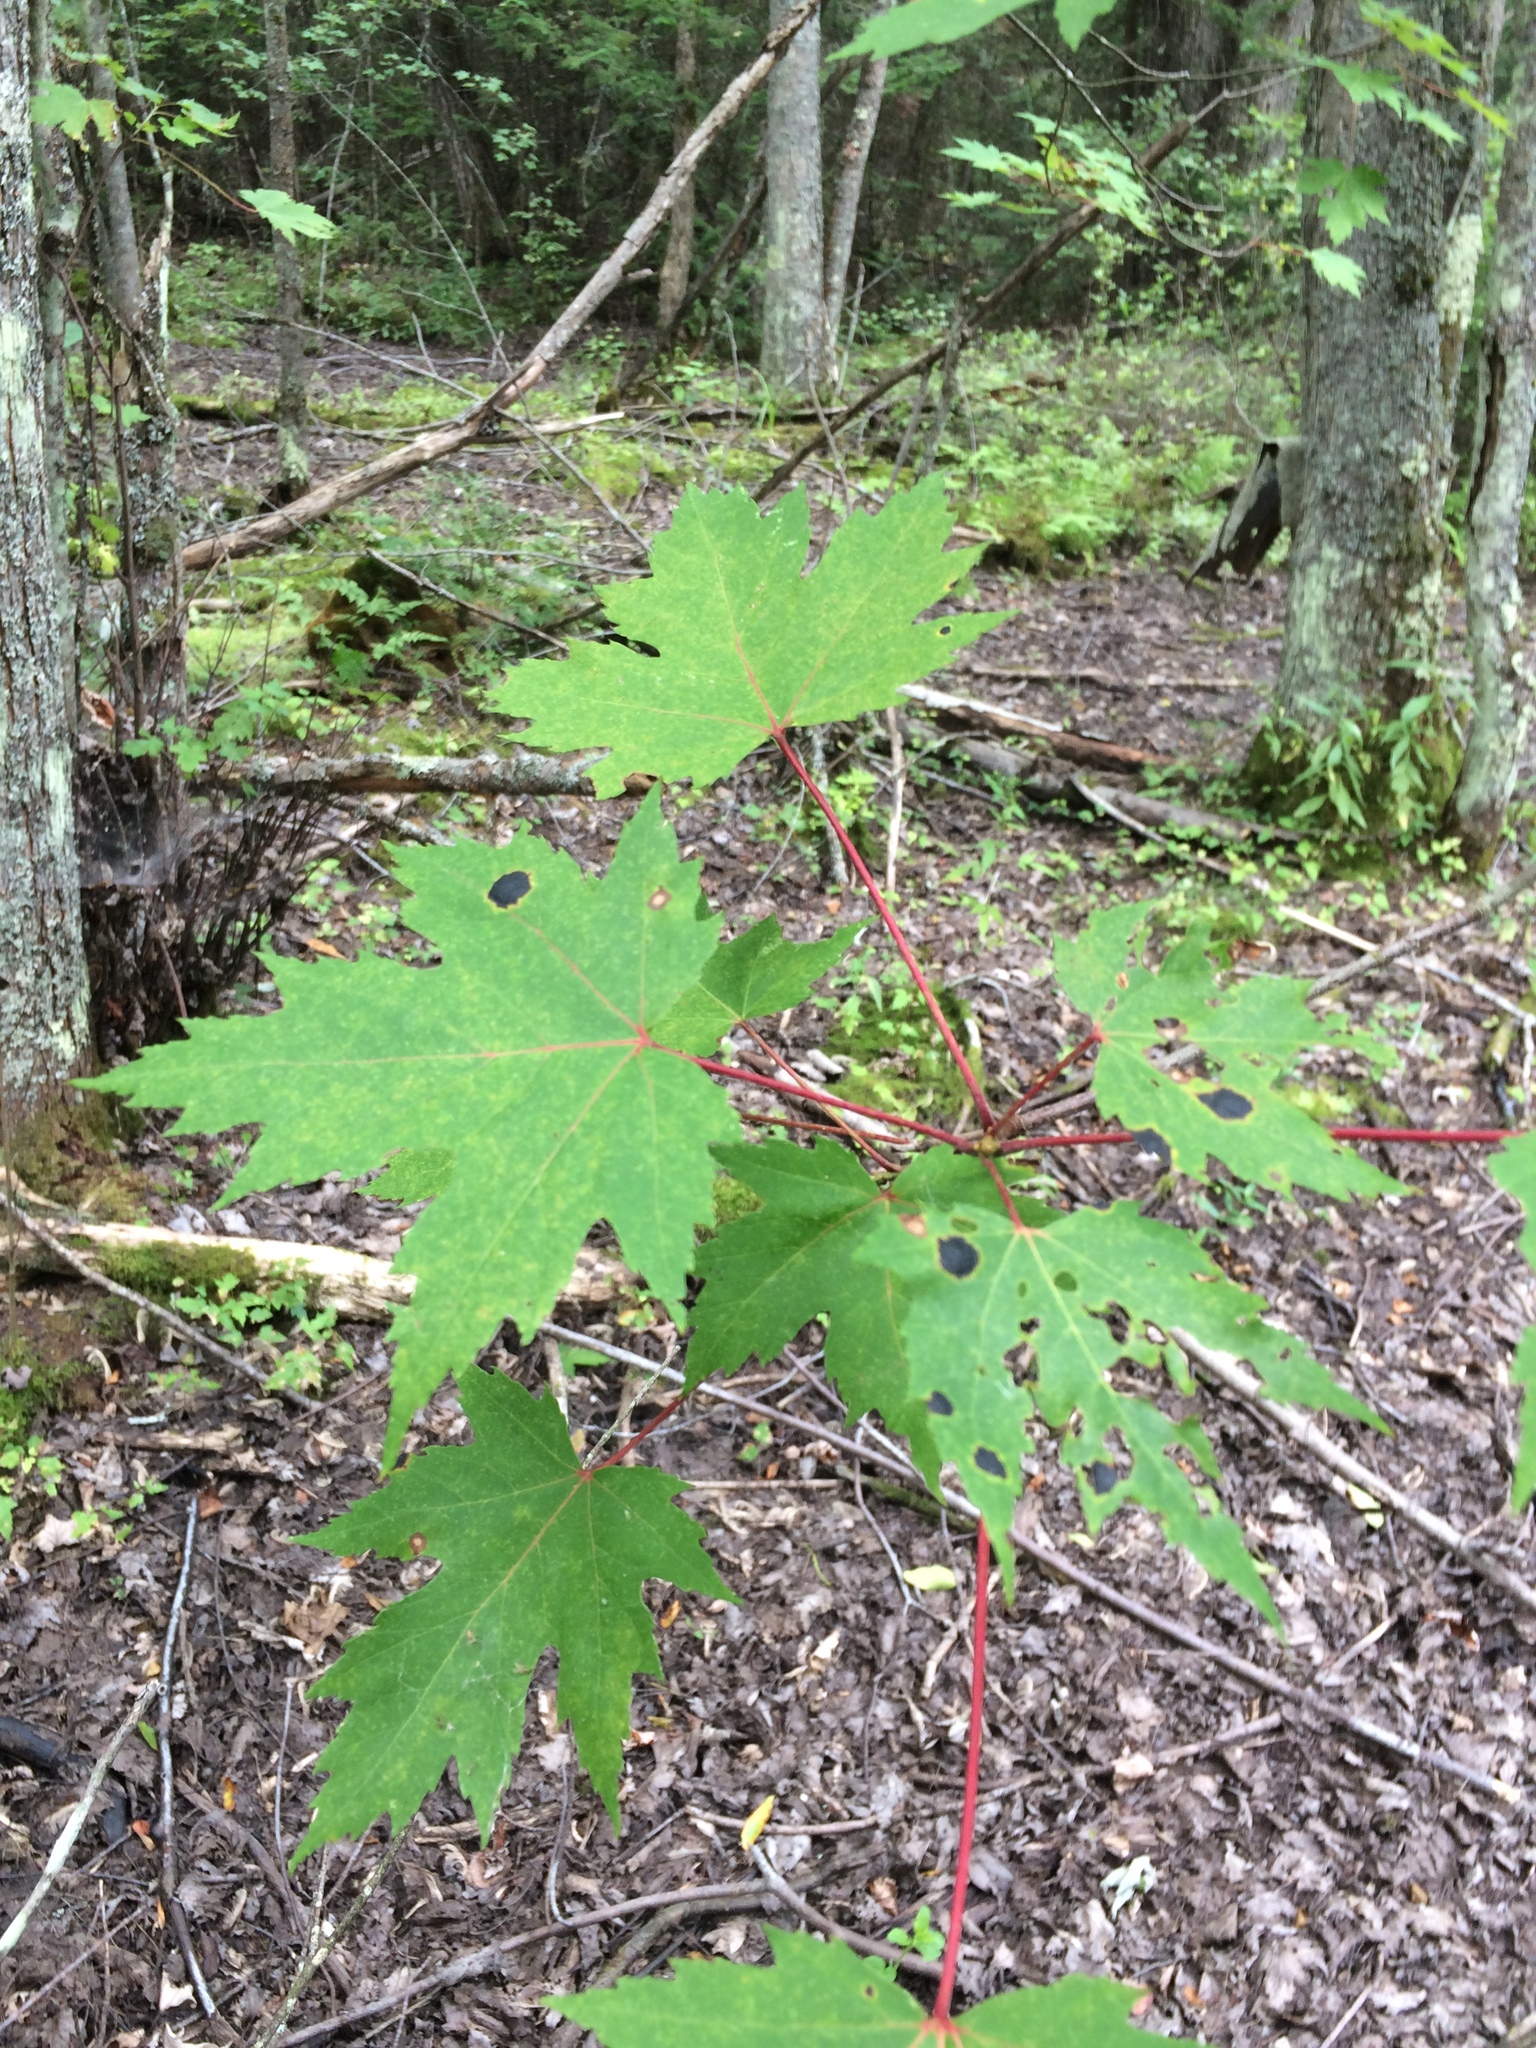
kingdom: Plantae
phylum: Tracheophyta
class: Magnoliopsida
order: Sapindales
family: Sapindaceae
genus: Acer
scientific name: Acer freemanii
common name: Freeman maple
